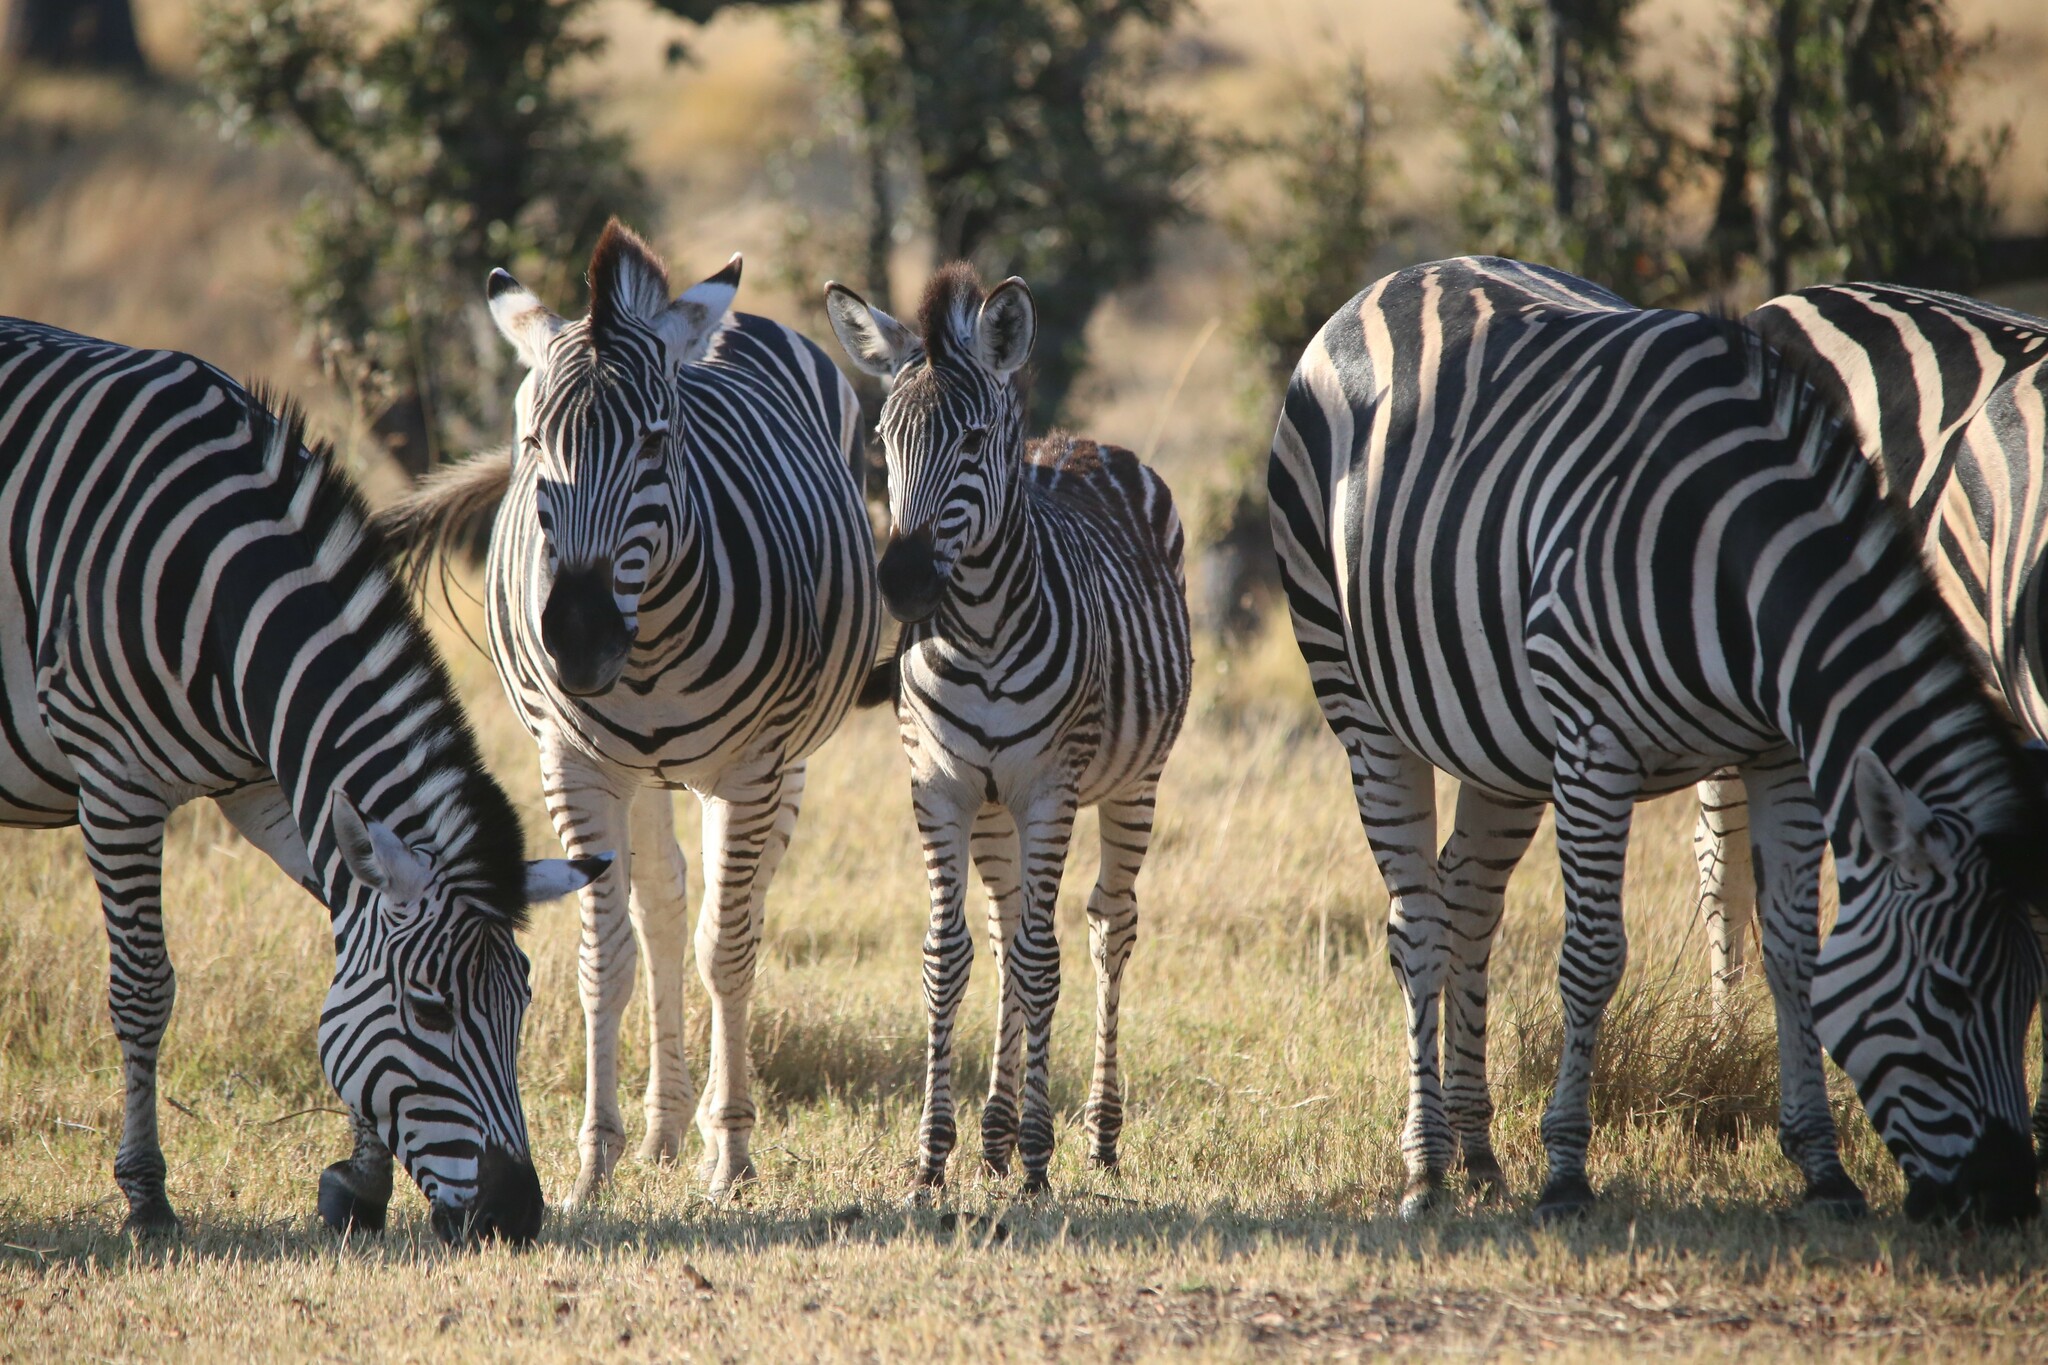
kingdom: Animalia
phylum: Chordata
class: Mammalia
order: Perissodactyla
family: Equidae
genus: Equus
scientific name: Equus quagga
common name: Plains zebra
